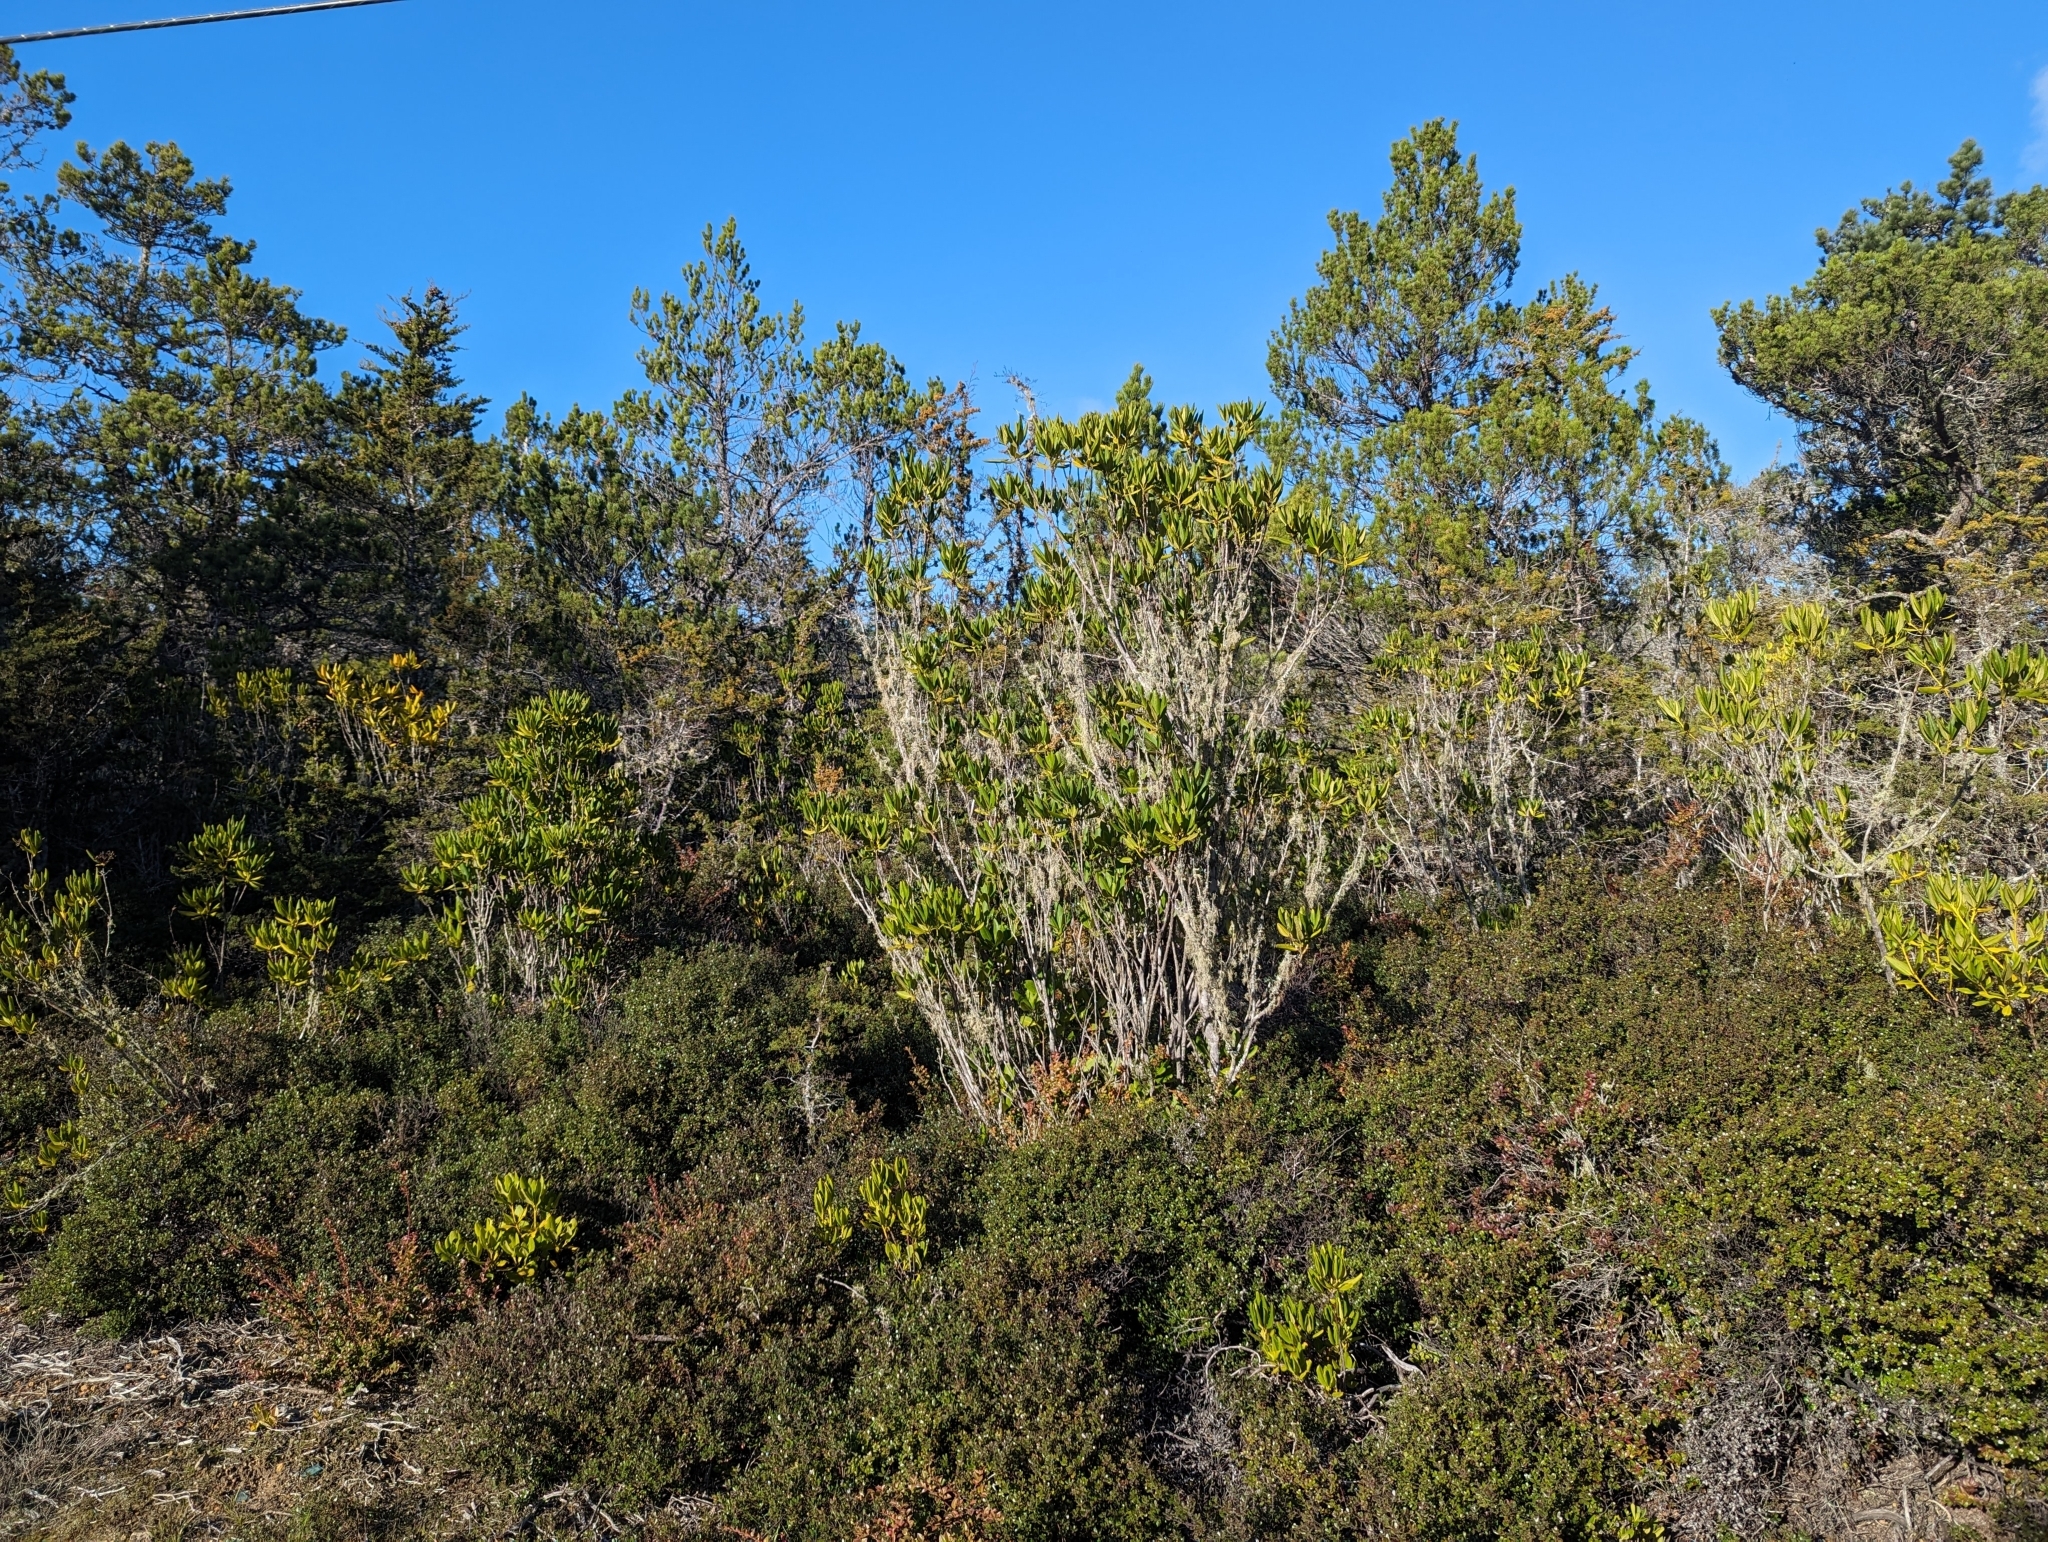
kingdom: Plantae
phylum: Tracheophyta
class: Magnoliopsida
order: Fagales
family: Myricaceae
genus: Morella
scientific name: Morella californica
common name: California wax-myrtle
